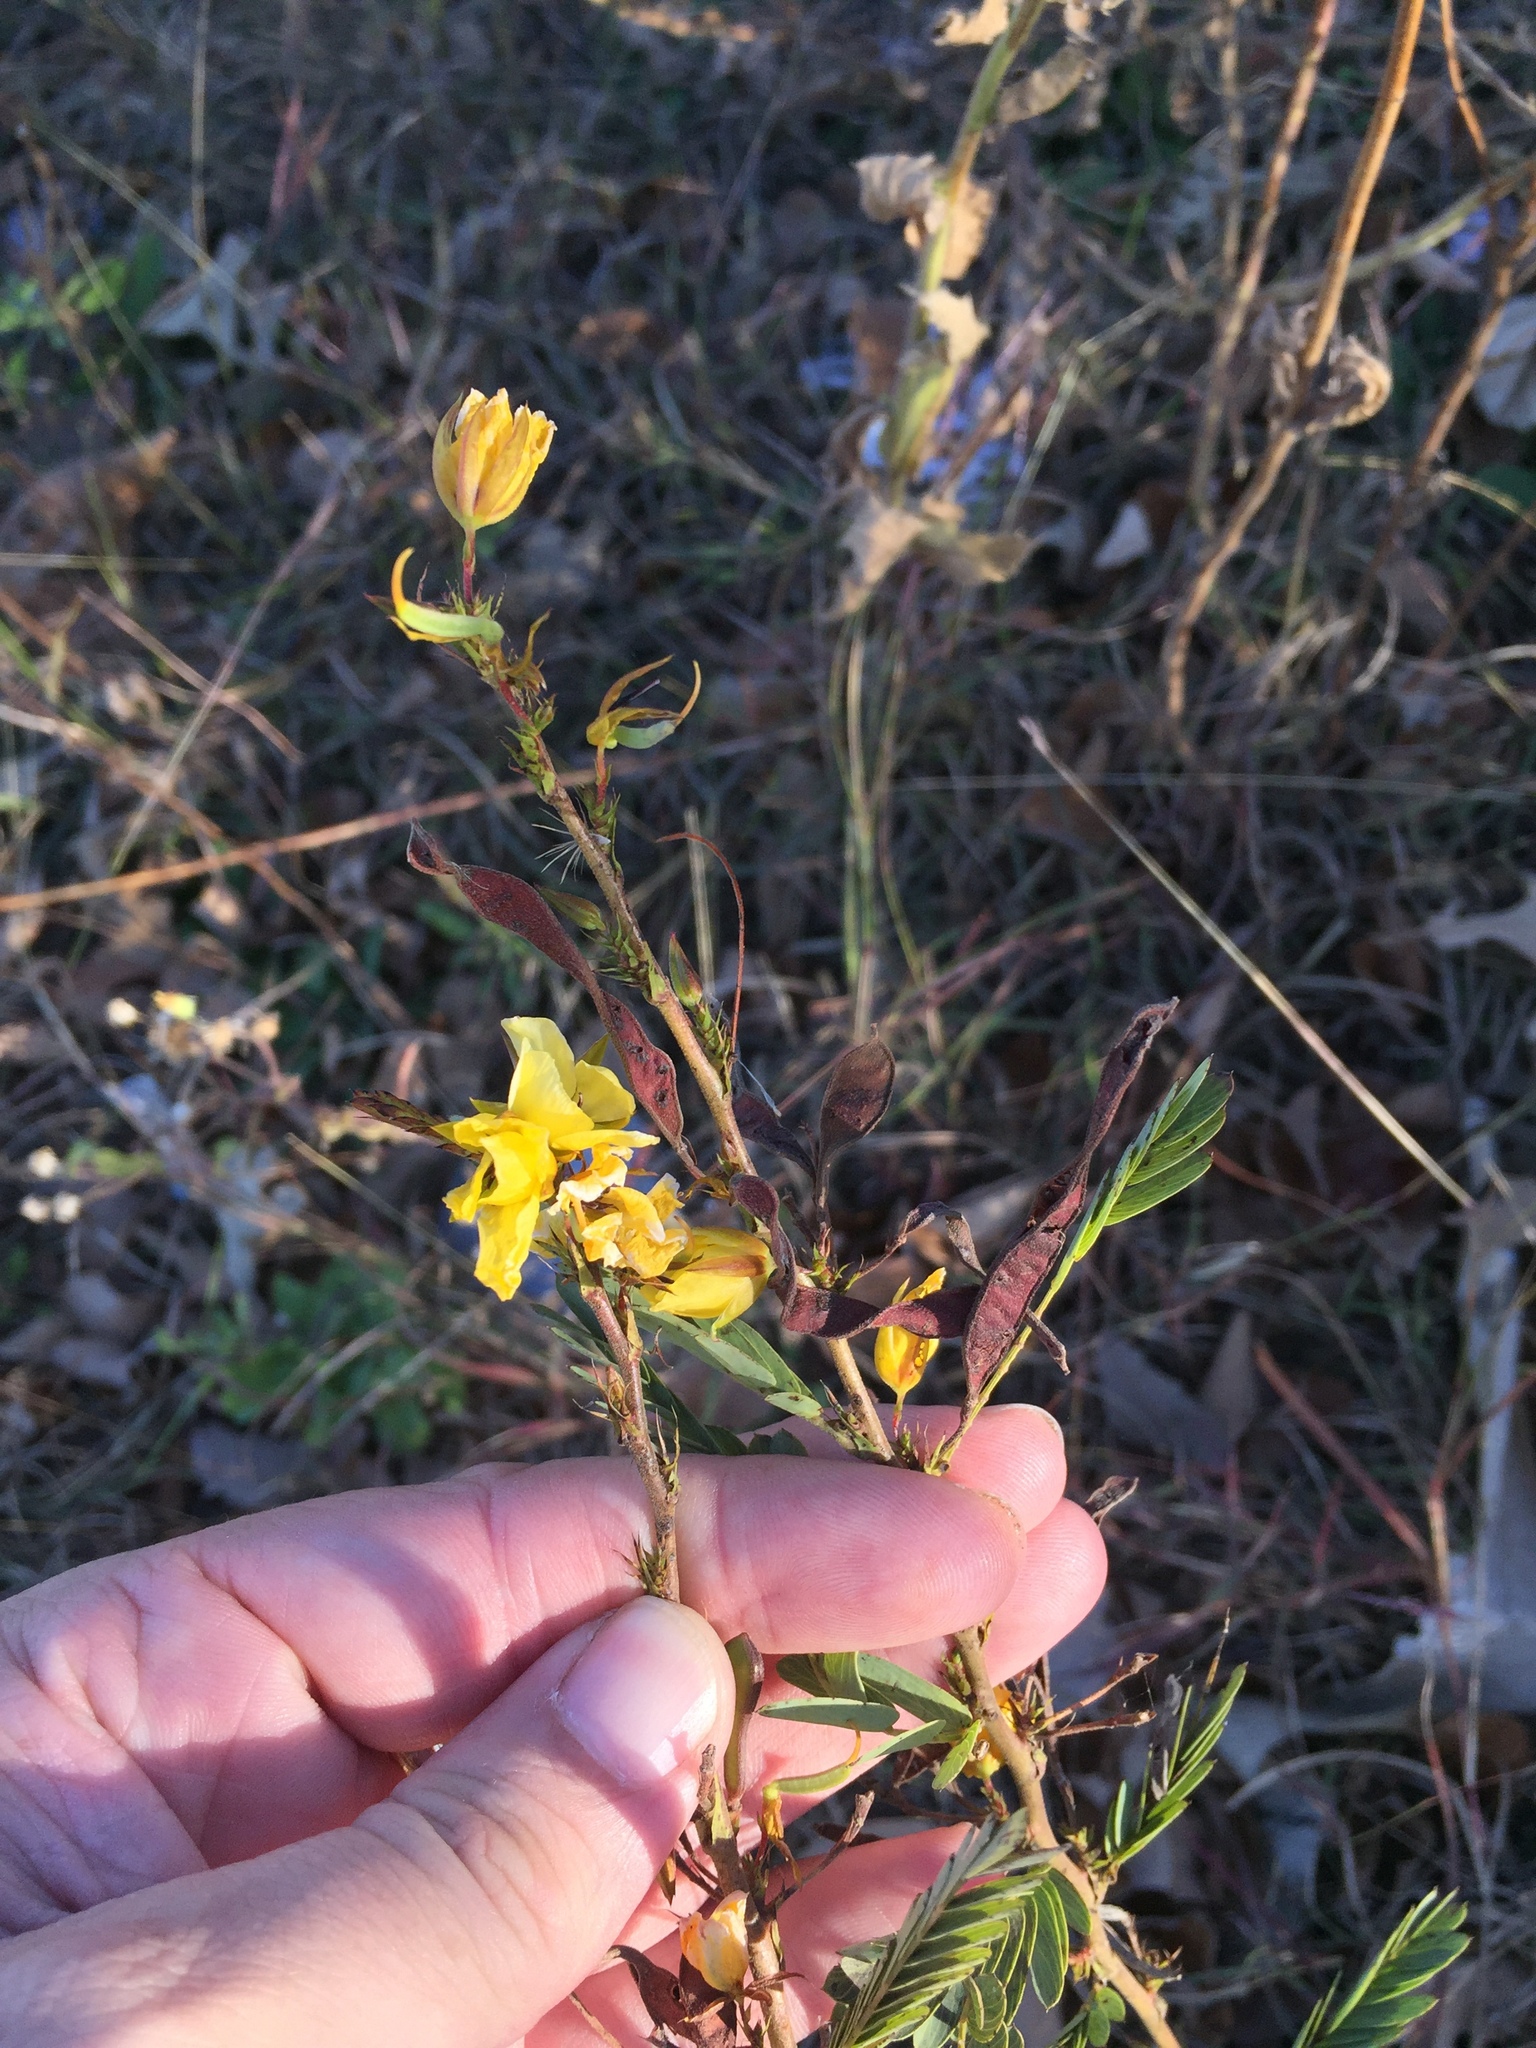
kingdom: Plantae
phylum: Tracheophyta
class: Magnoliopsida
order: Fabales
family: Fabaceae
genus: Chamaecrista
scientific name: Chamaecrista fasciculata
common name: Golden cassia
